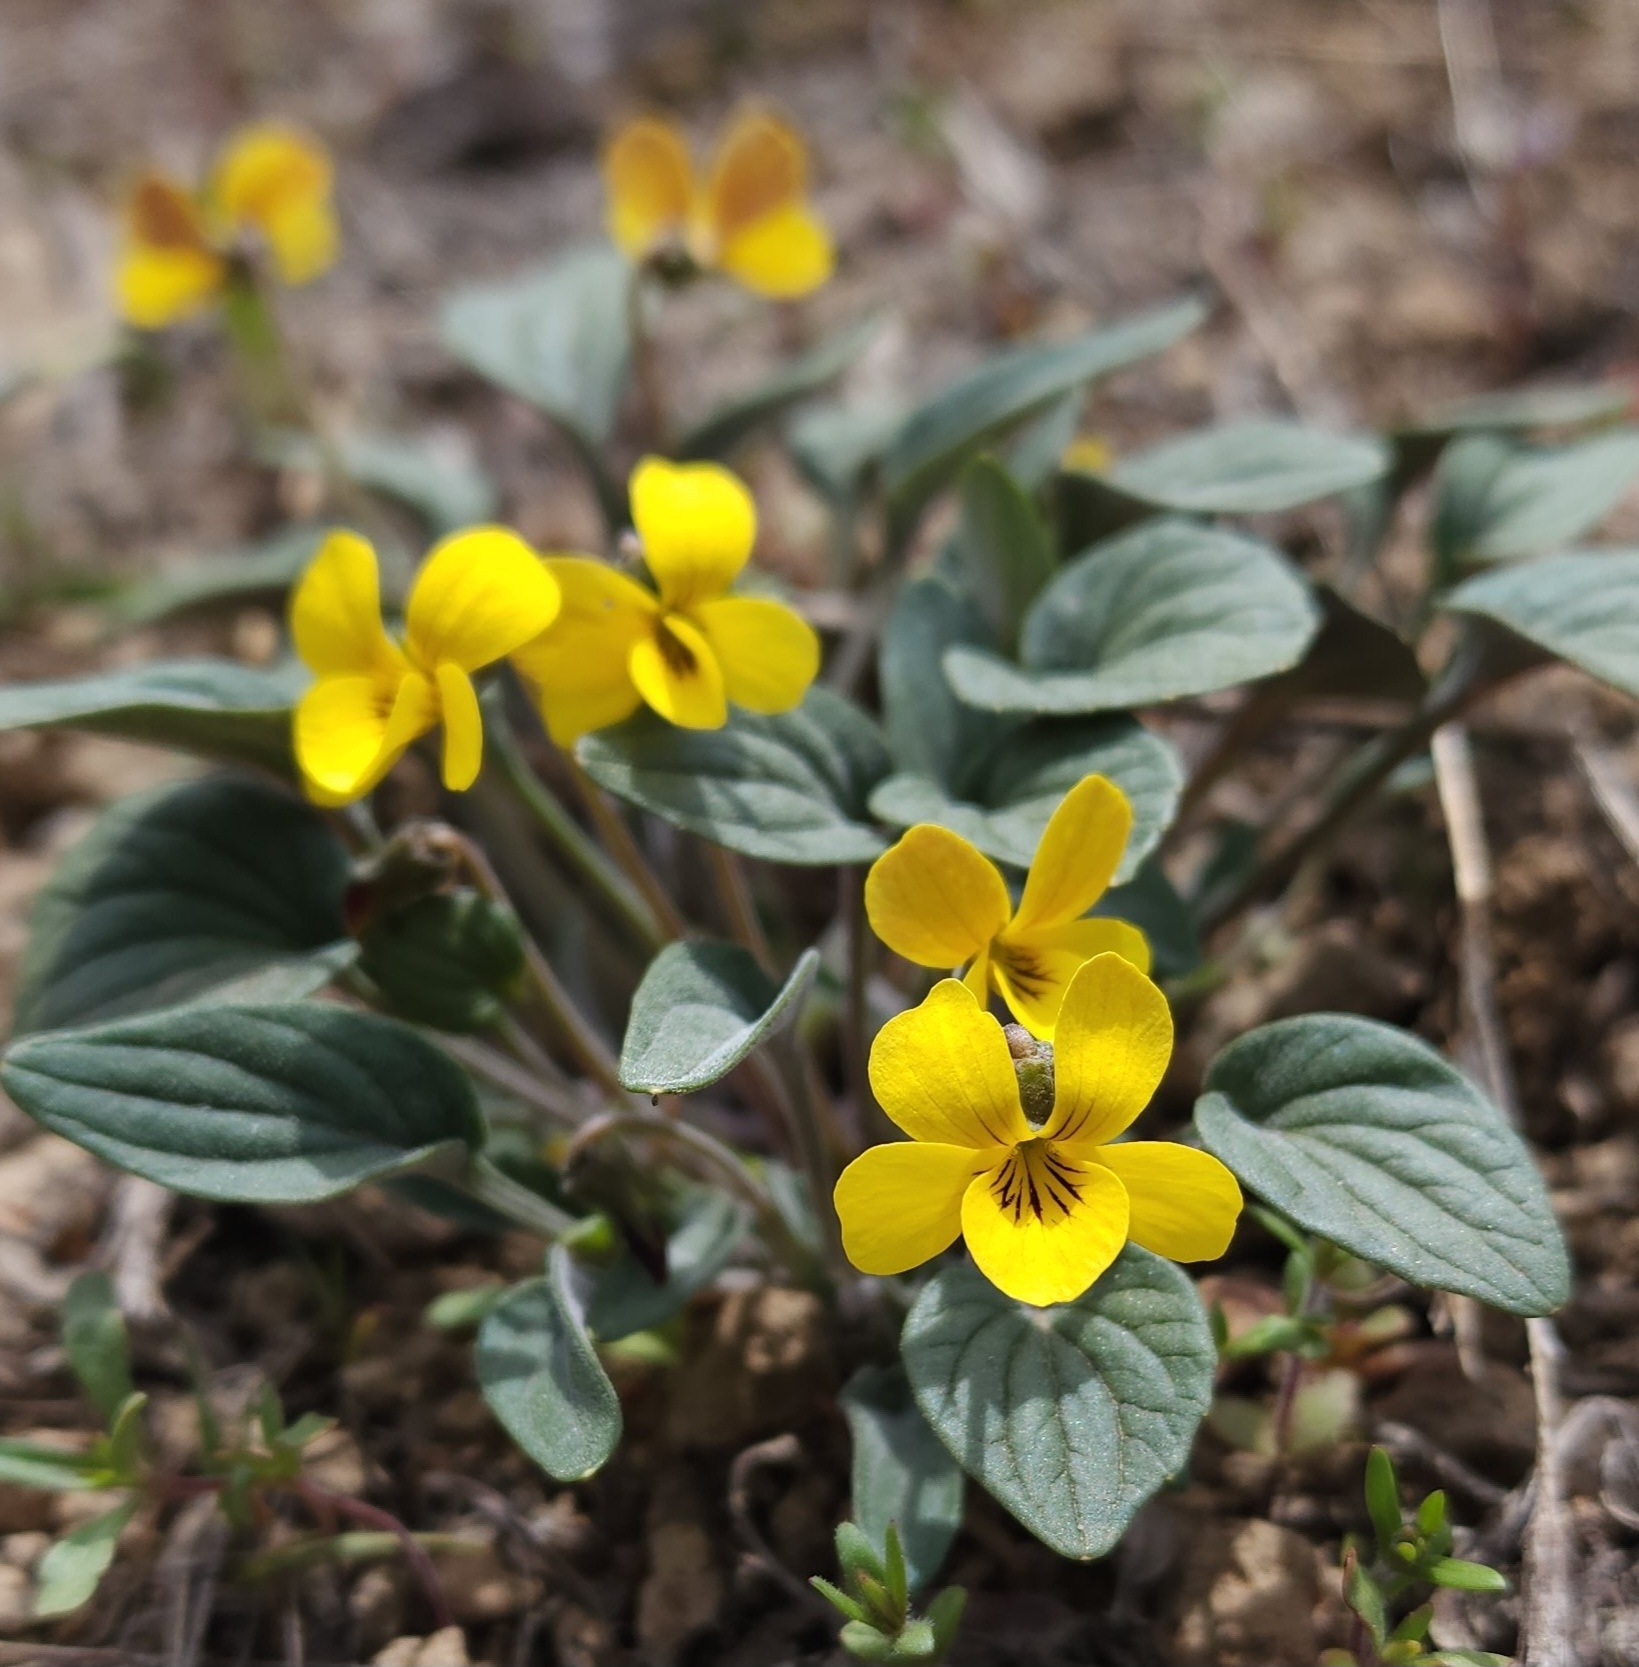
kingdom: Plantae
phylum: Tracheophyta
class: Magnoliopsida
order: Malpighiales
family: Violaceae
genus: Viola
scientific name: Viola purpurea
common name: Pine violet
